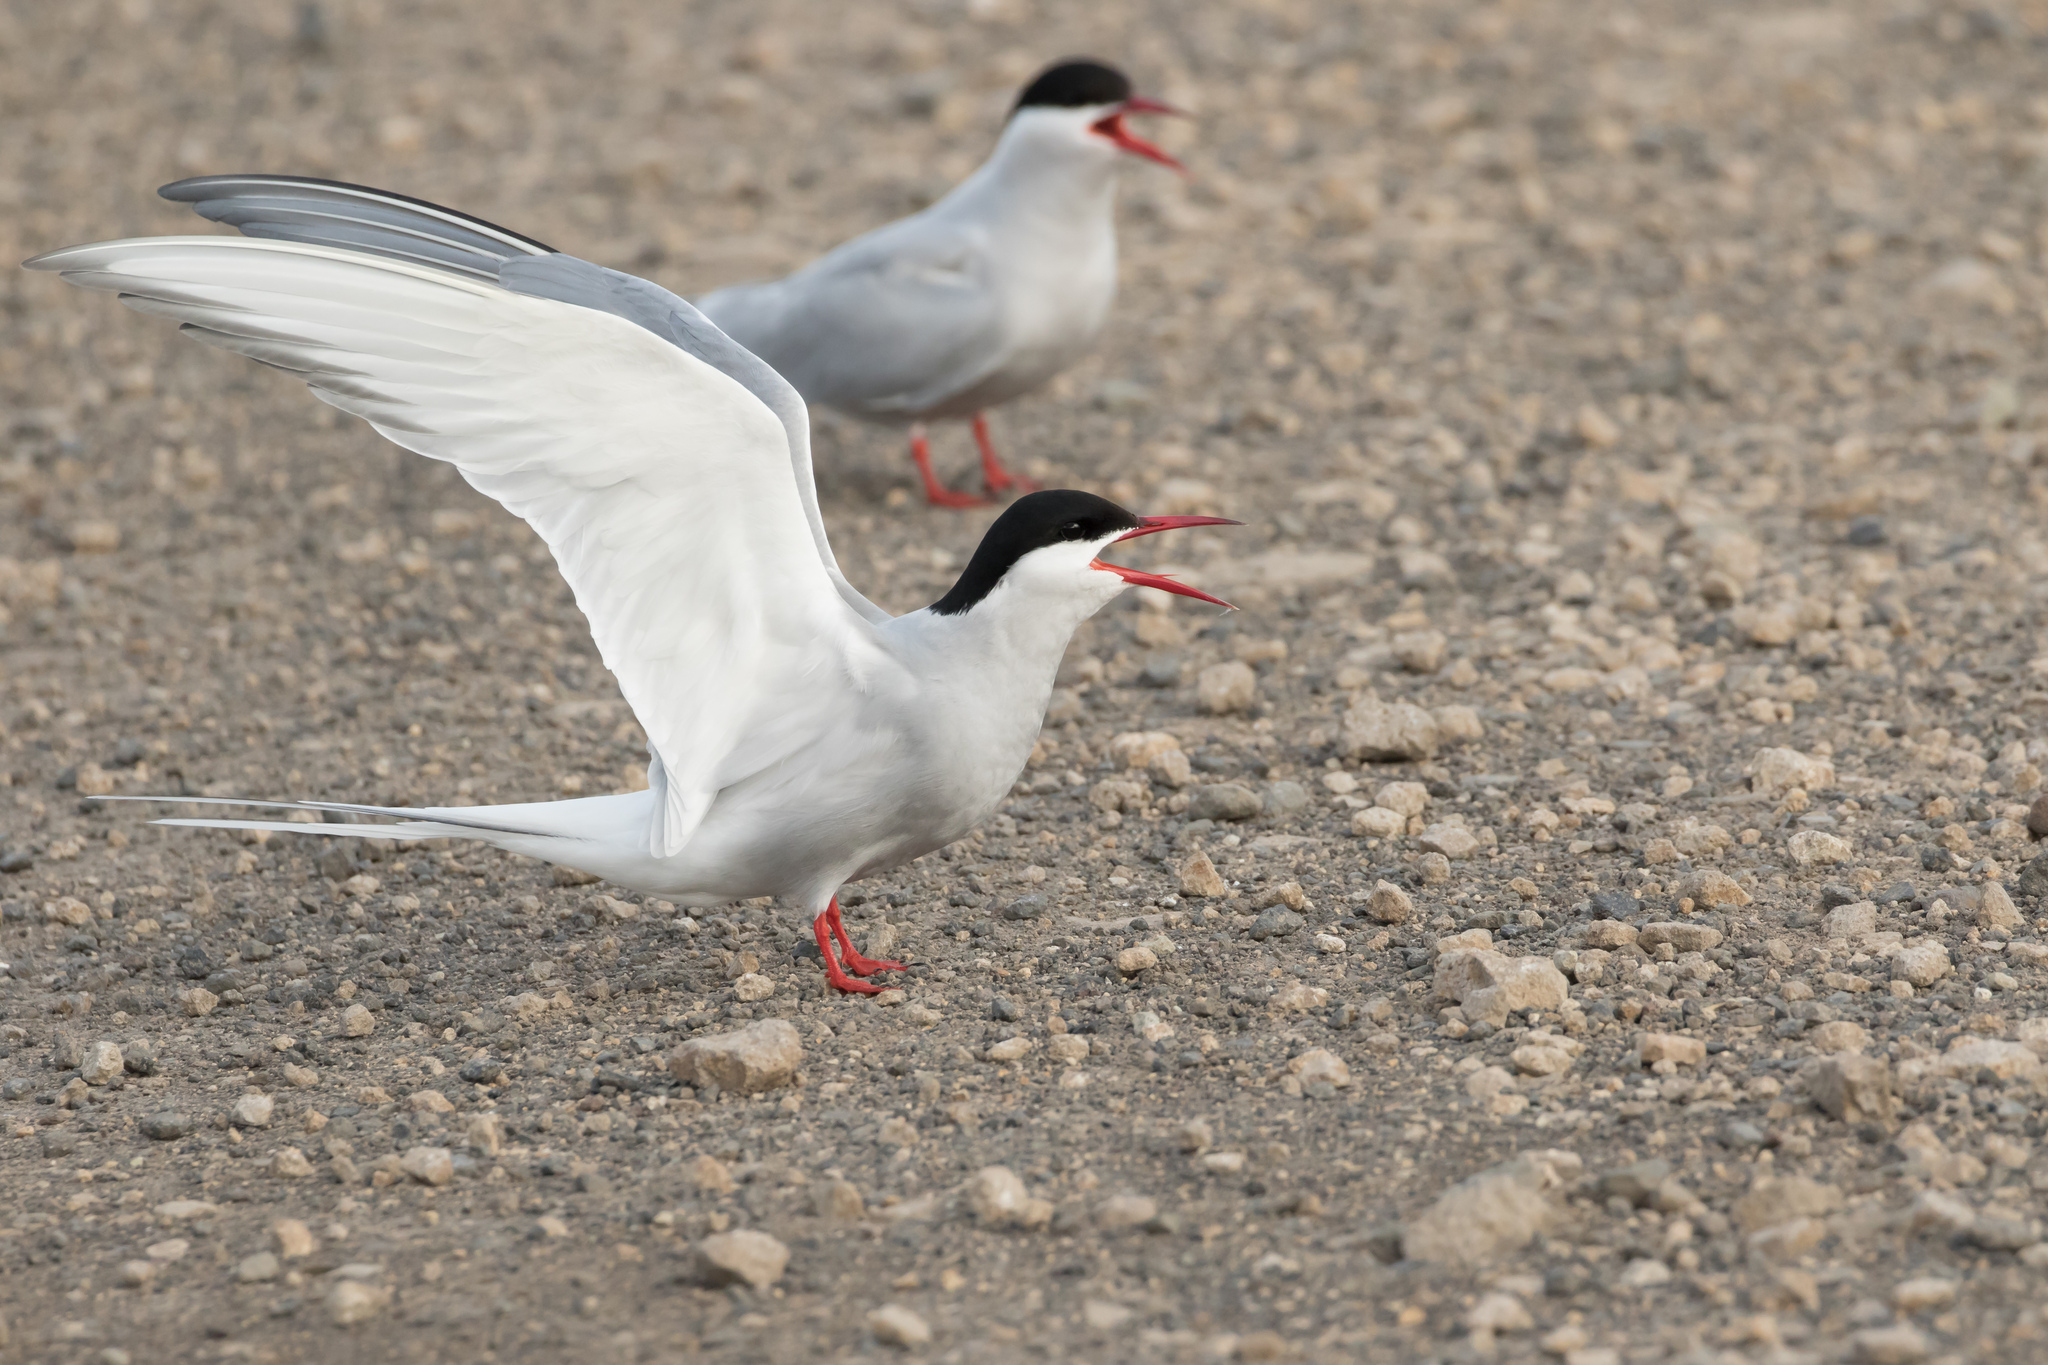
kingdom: Animalia
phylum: Chordata
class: Aves
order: Charadriiformes
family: Laridae
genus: Sterna
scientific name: Sterna paradisaea
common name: Arctic tern
